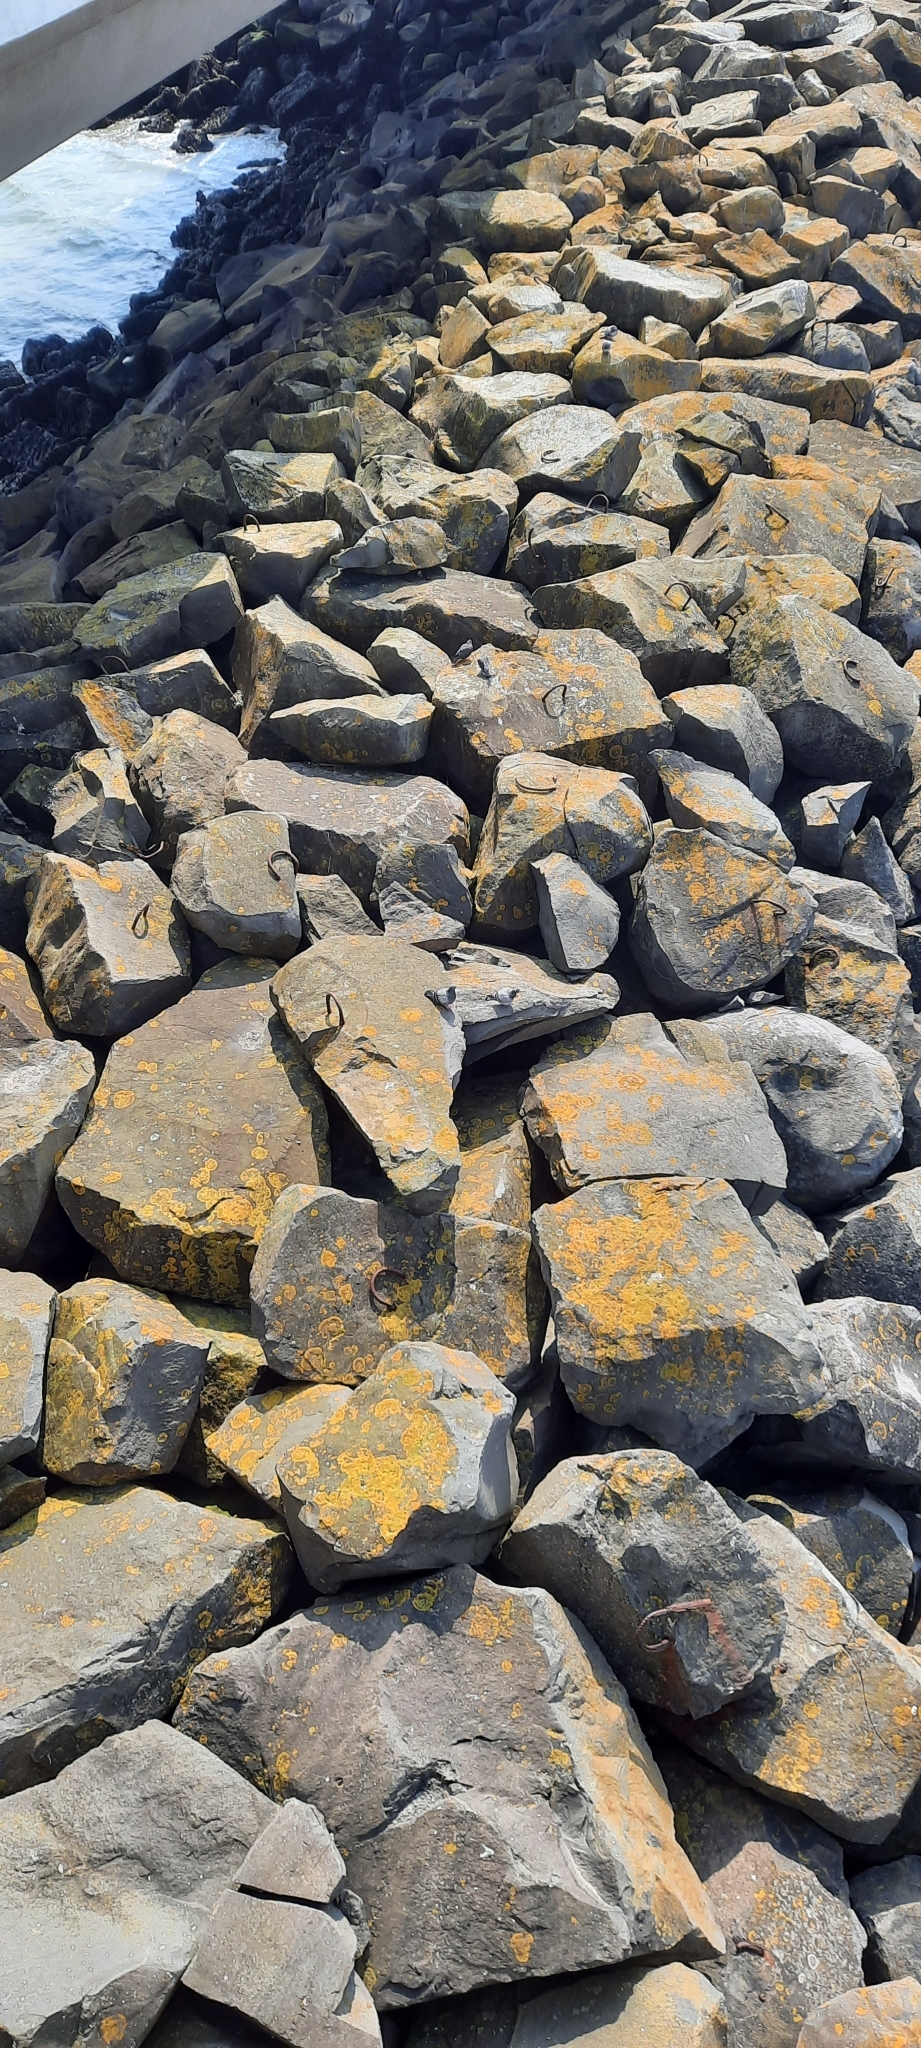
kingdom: Animalia
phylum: Chordata
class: Aves
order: Columbiformes
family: Columbidae
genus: Columba
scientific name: Columba livia
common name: Rock pigeon
